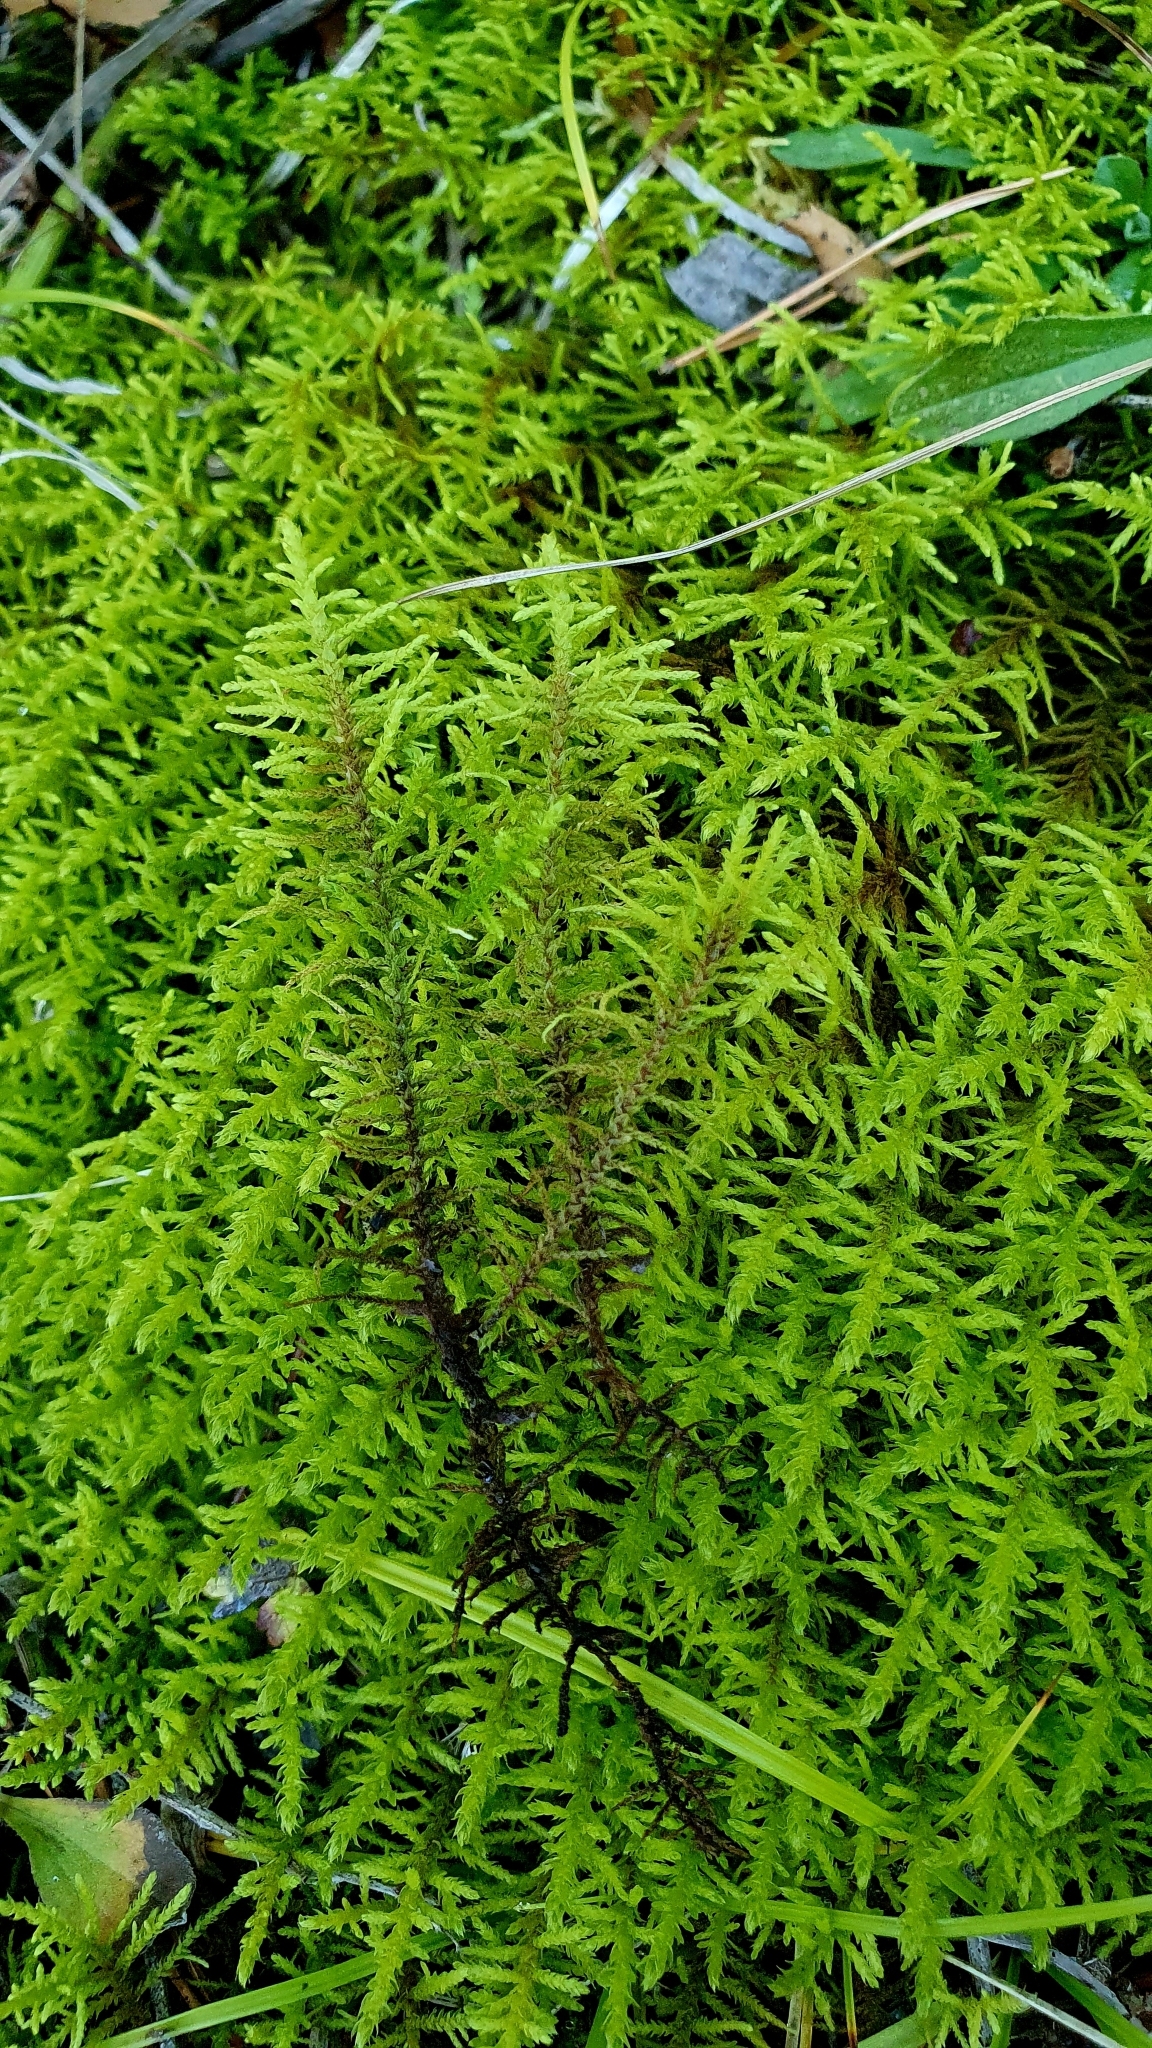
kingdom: Plantae
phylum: Bryophyta
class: Bryopsida
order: Hypnales
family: Thuidiaceae
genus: Abietinella
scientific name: Abietinella abietina
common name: Wiry fern moss
